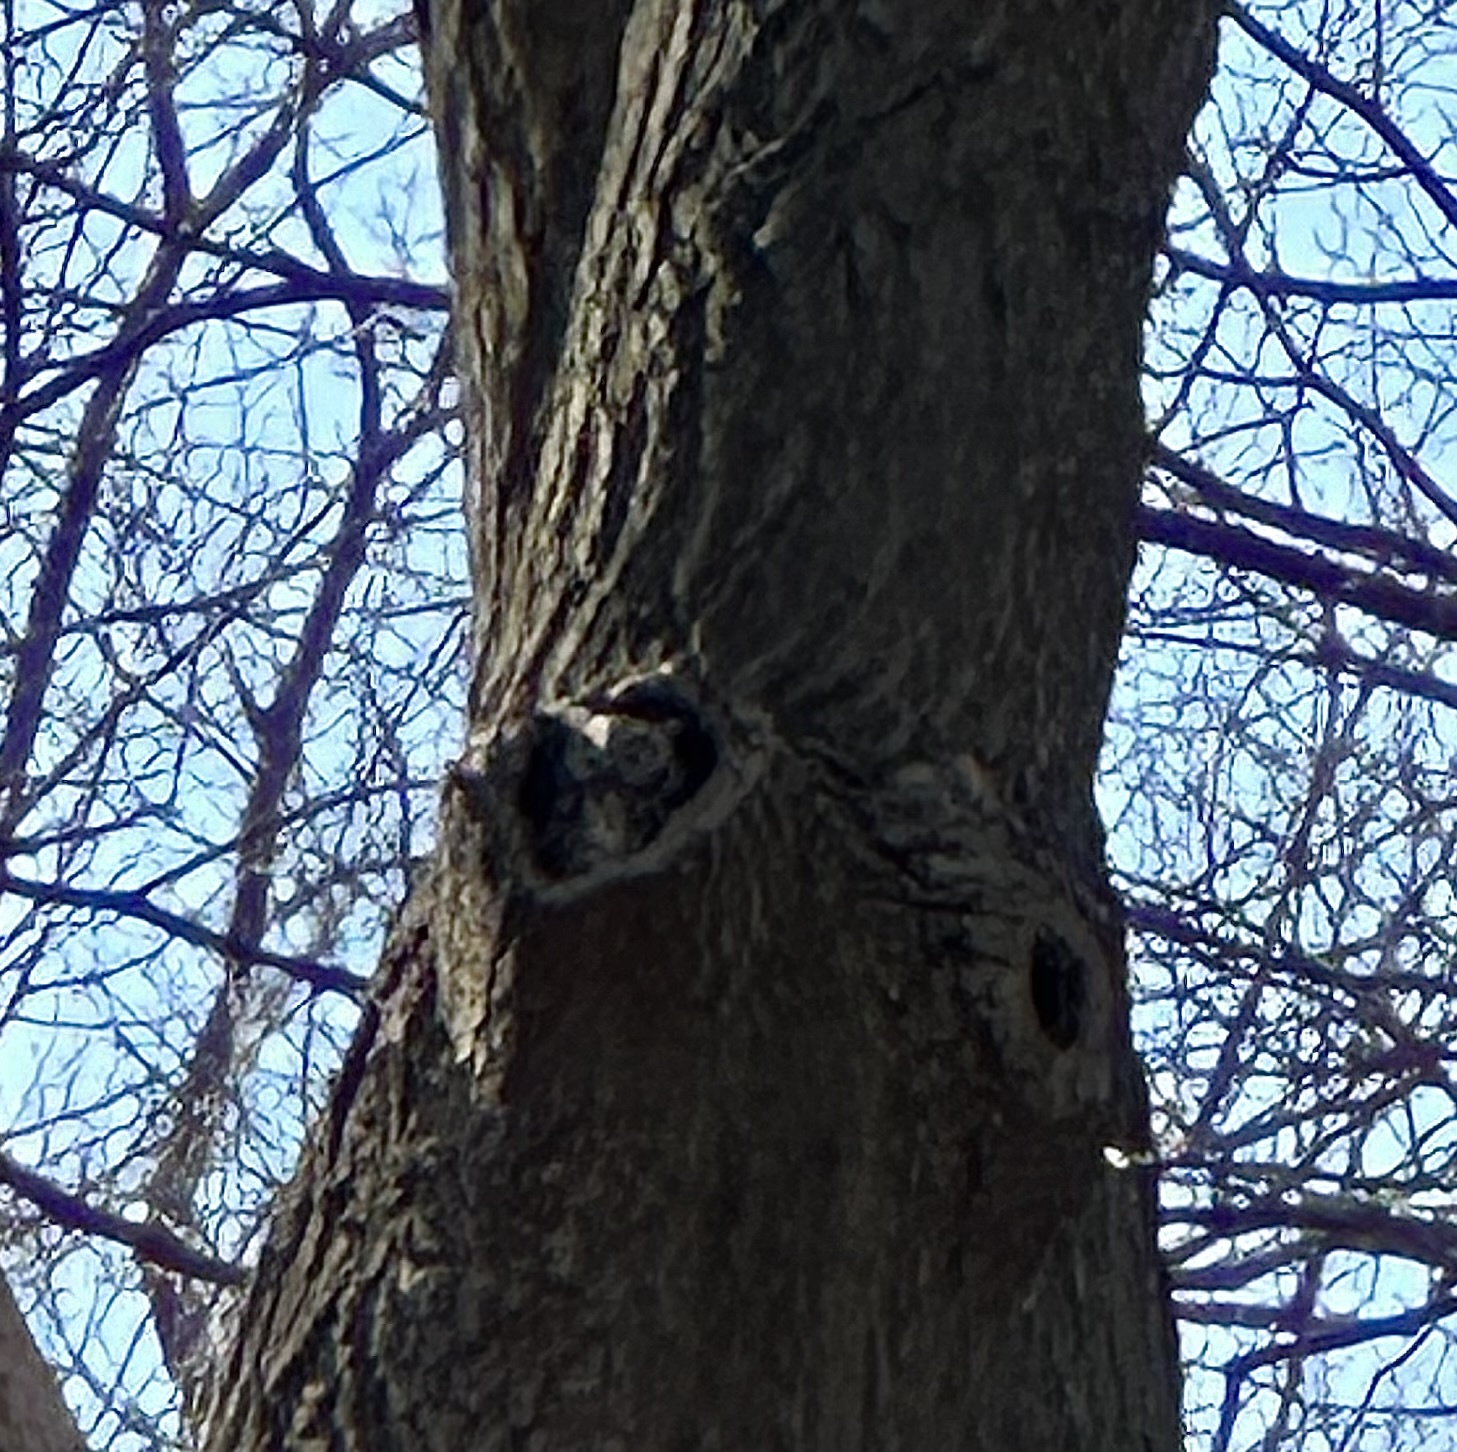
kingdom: Animalia
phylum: Chordata
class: Aves
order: Strigiformes
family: Strigidae
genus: Megascops
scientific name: Megascops asio
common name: Eastern screech-owl
